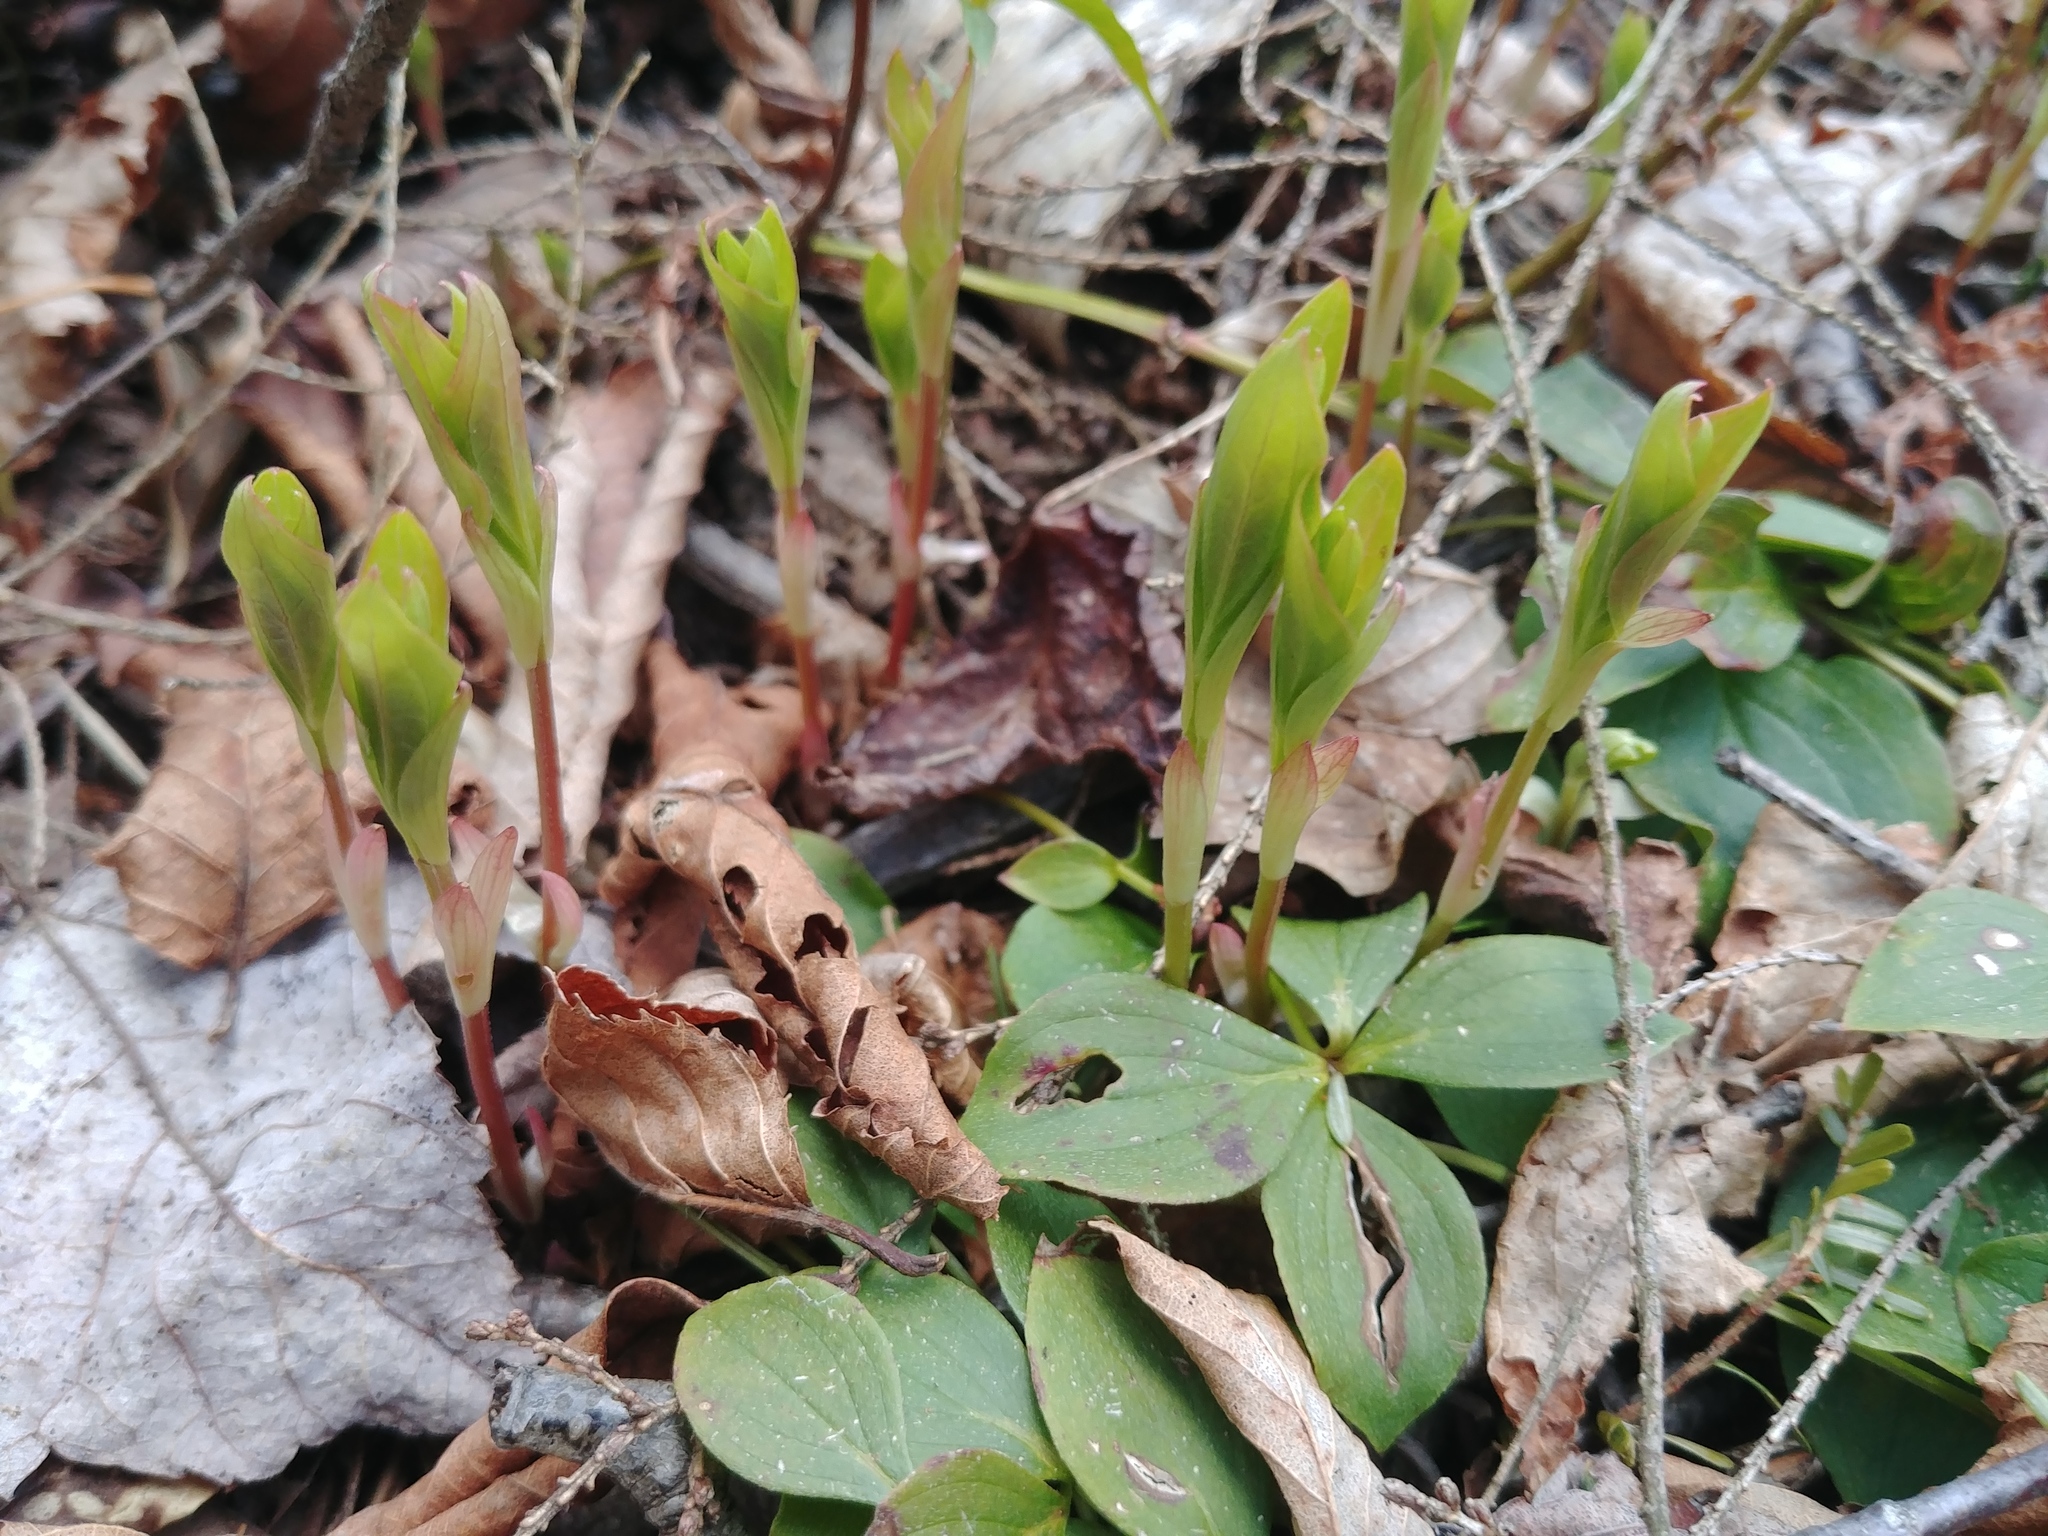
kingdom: Plantae
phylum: Tracheophyta
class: Magnoliopsida
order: Cornales
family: Cornaceae
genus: Cornus
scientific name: Cornus canadensis
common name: Creeping dogwood
